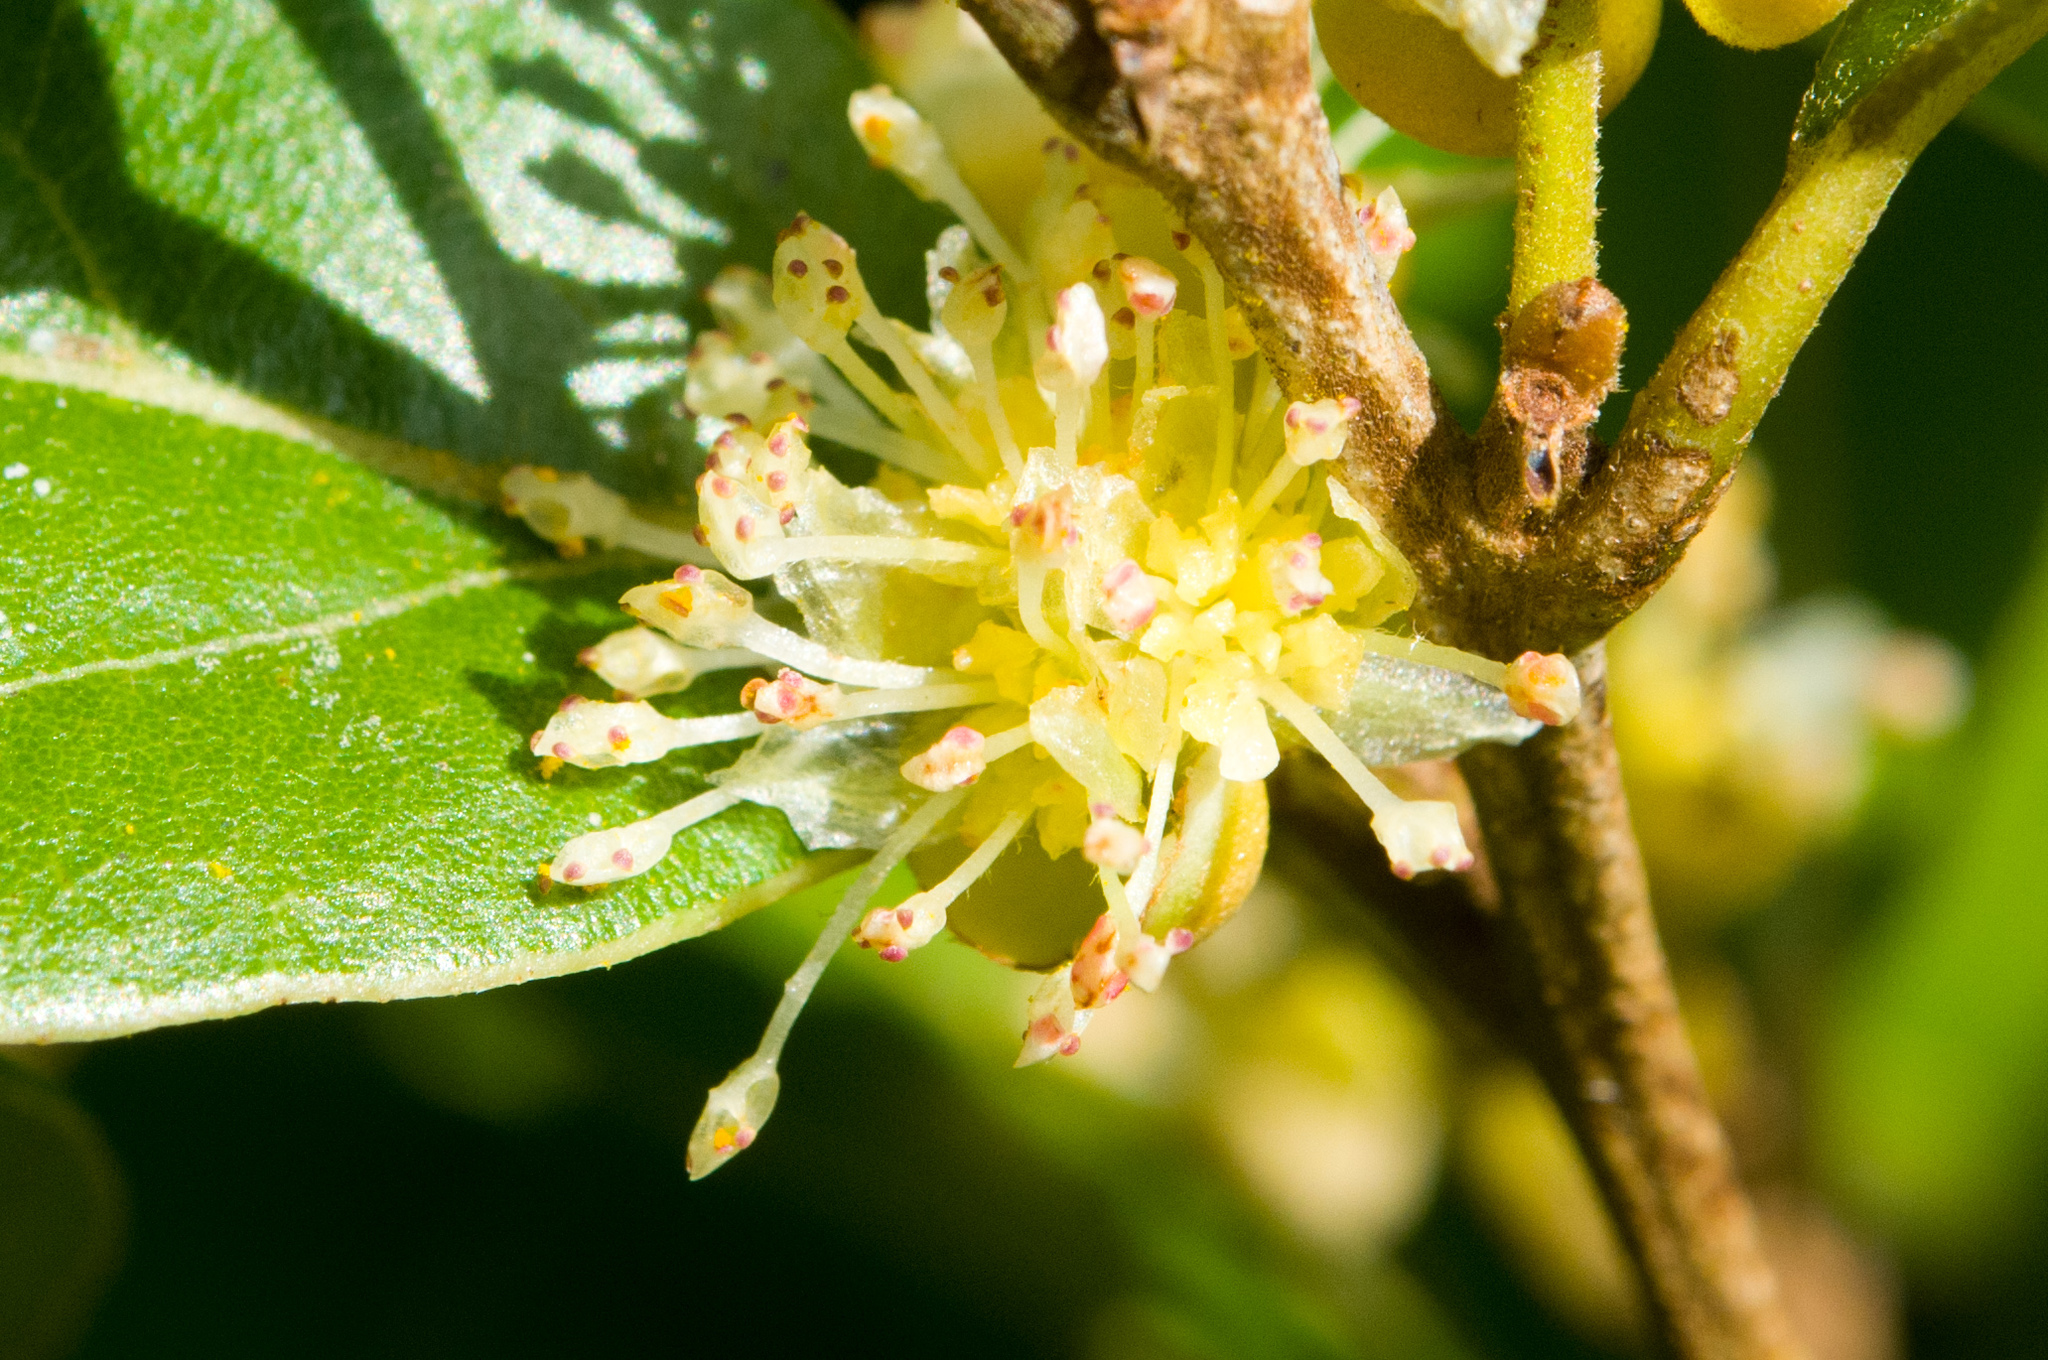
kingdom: Plantae
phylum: Tracheophyta
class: Magnoliopsida
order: Laurales
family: Lauraceae
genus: Litsea
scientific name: Litsea hypophaea
